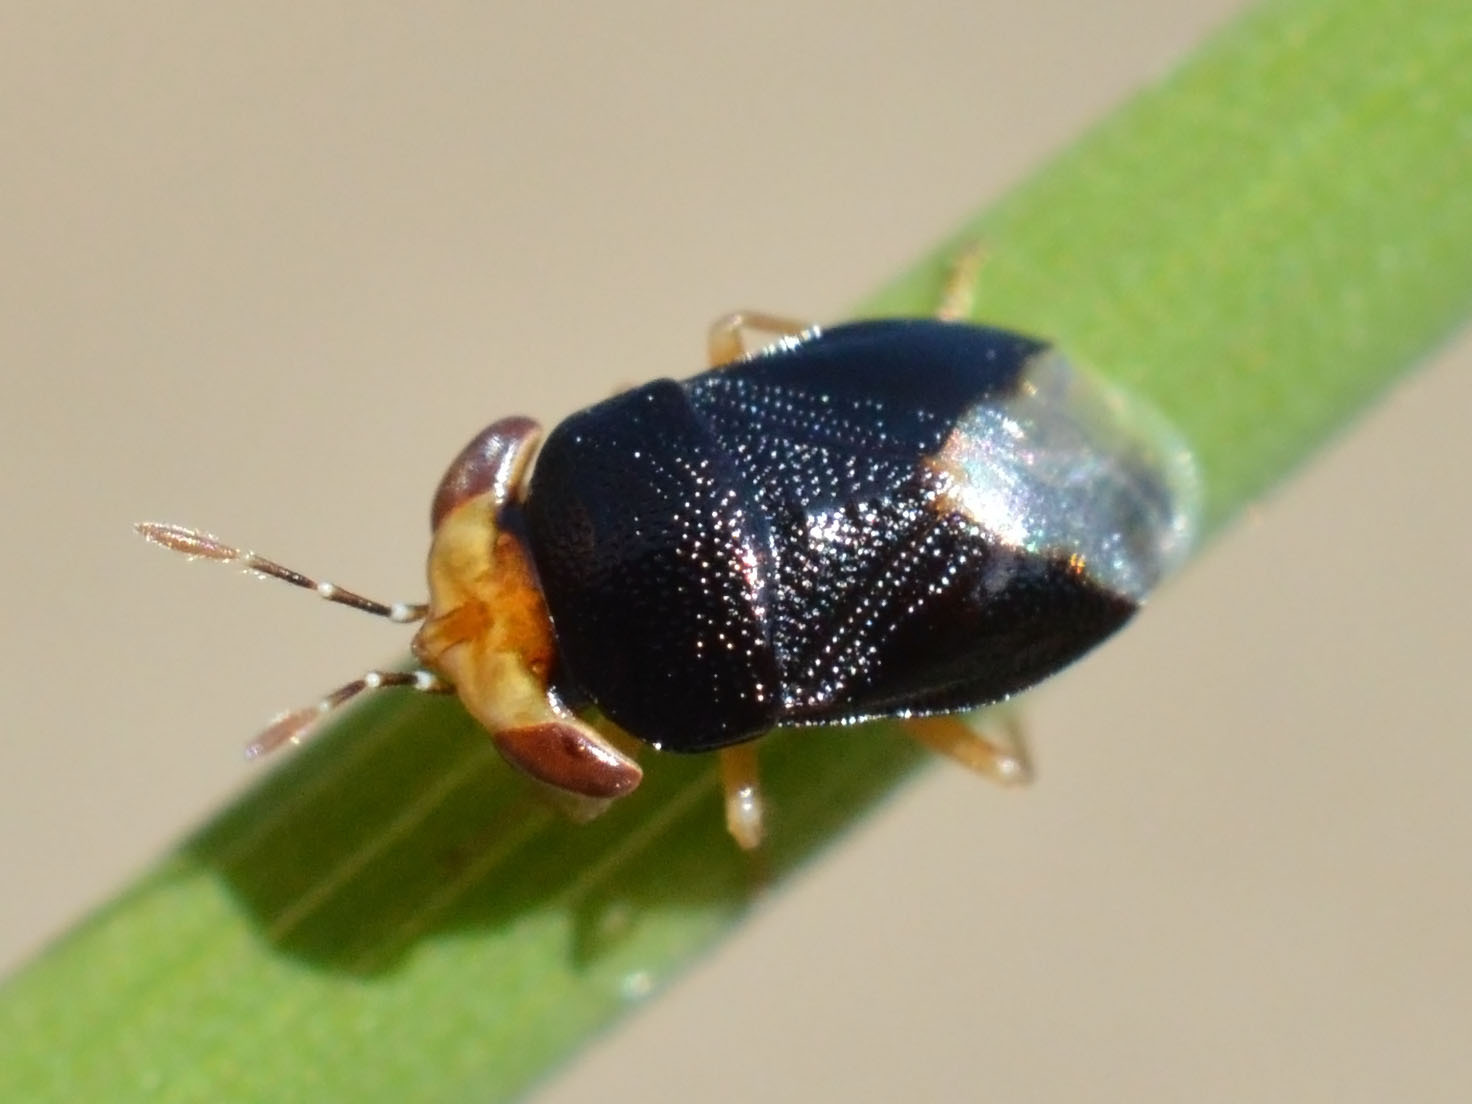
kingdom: Animalia
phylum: Arthropoda
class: Insecta
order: Hemiptera
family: Geocoridae
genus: Geocoris
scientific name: Geocoris erythrocephala
